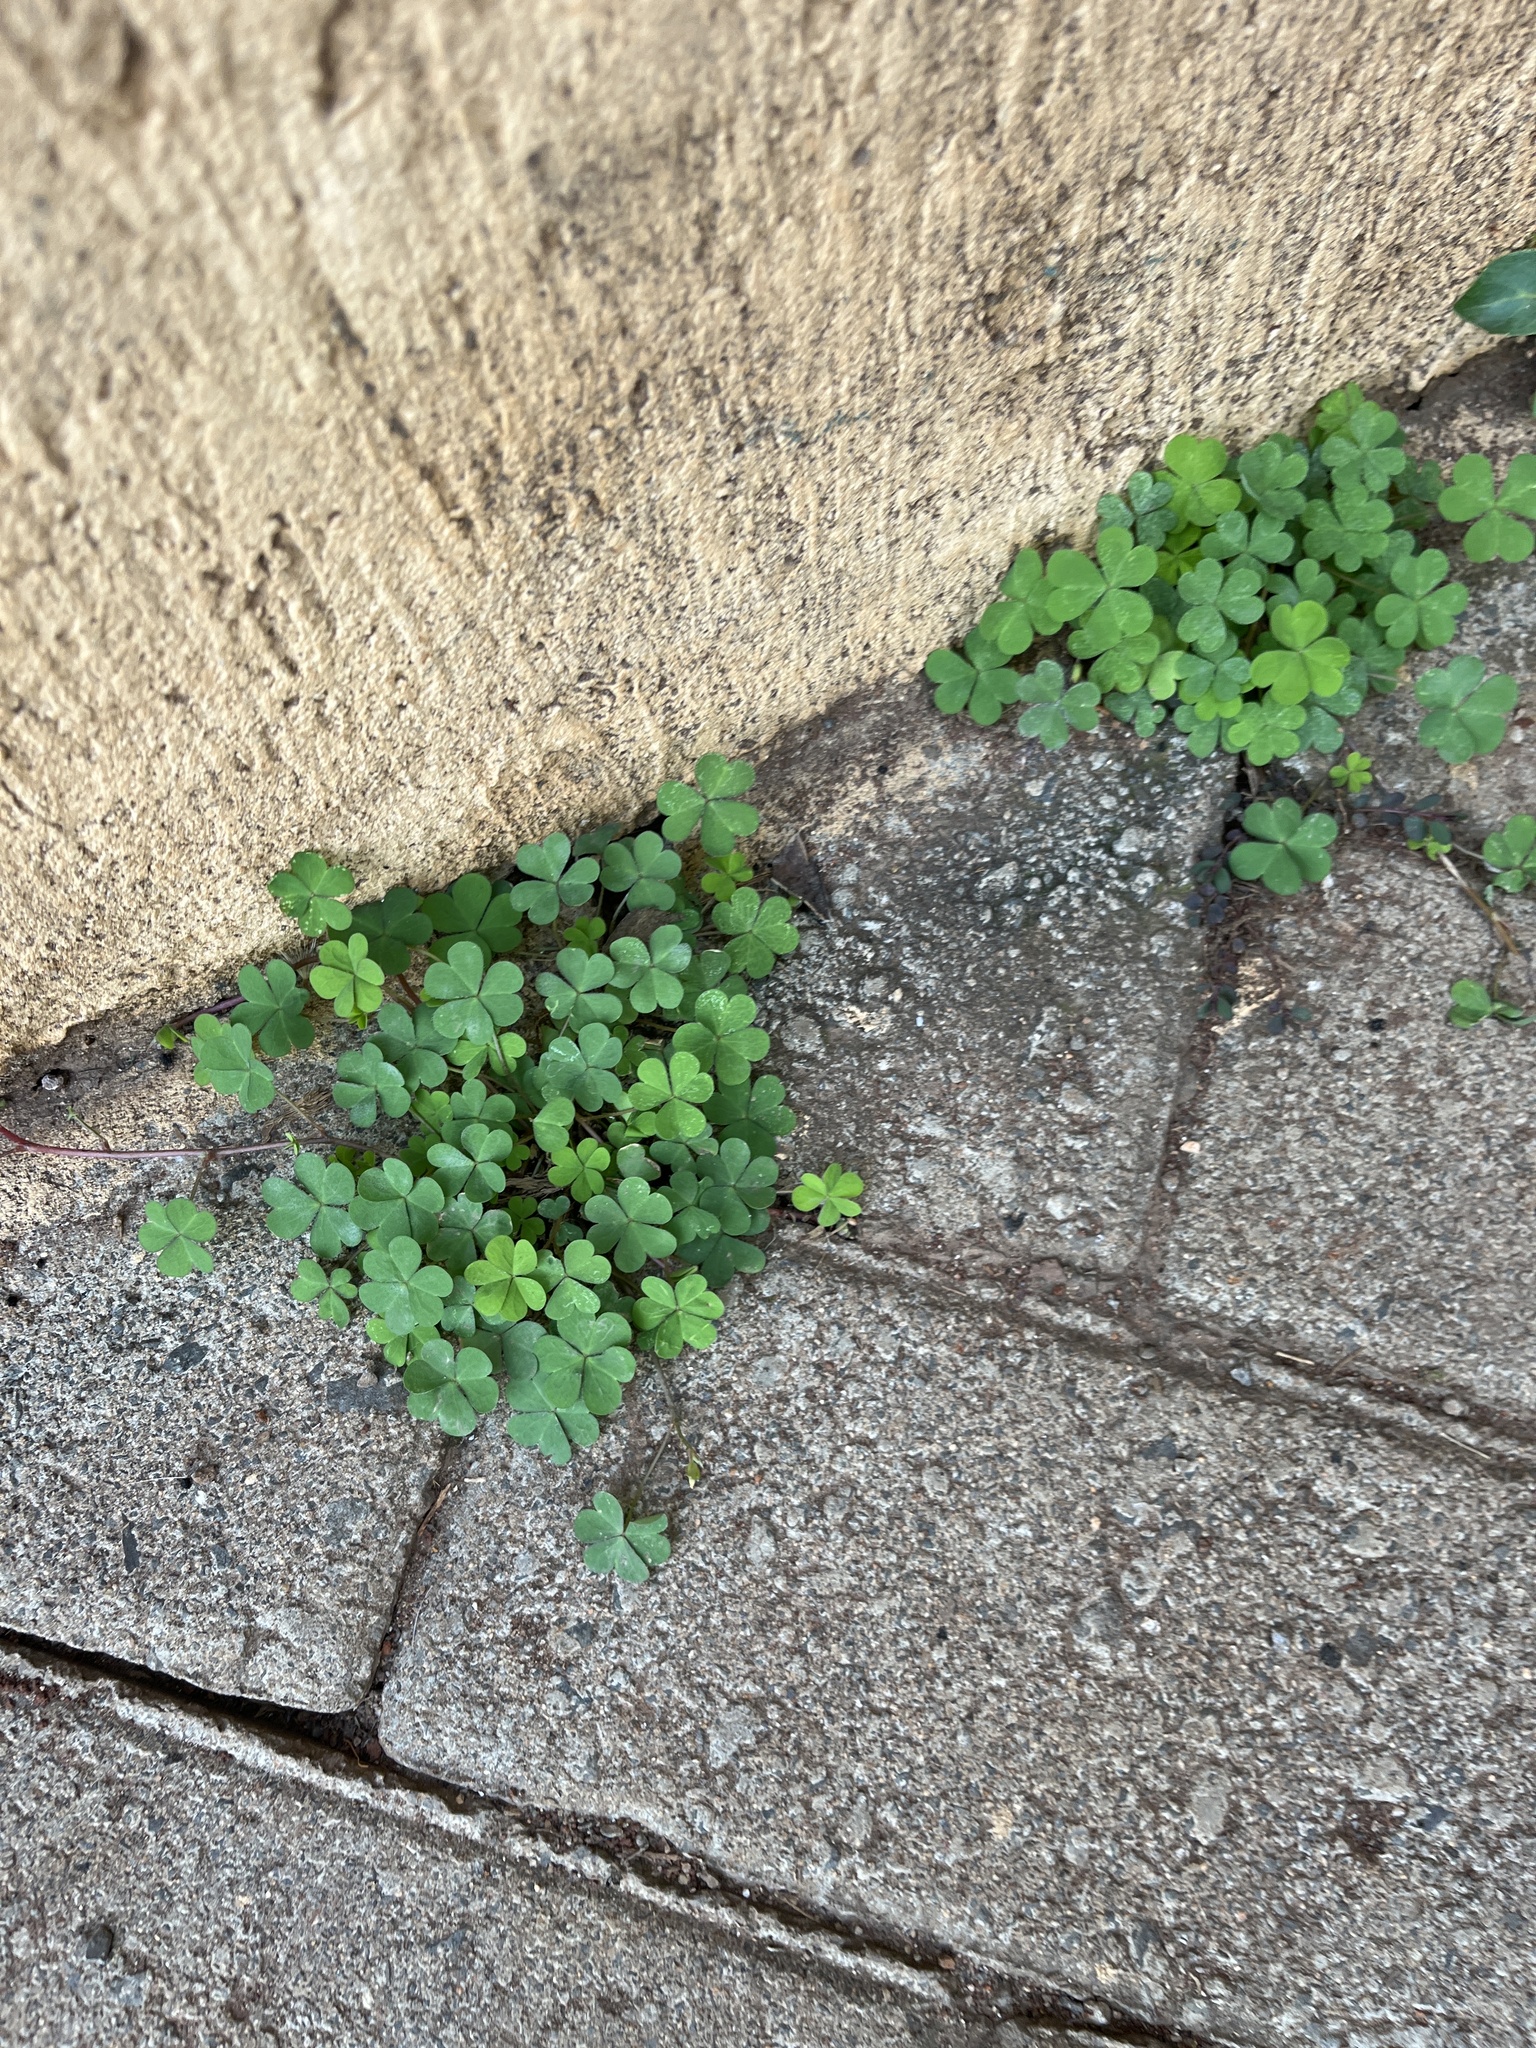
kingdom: Plantae
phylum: Tracheophyta
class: Magnoliopsida
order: Oxalidales
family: Oxalidaceae
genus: Oxalis
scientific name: Oxalis corniculata
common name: Procumbent yellow-sorrel
